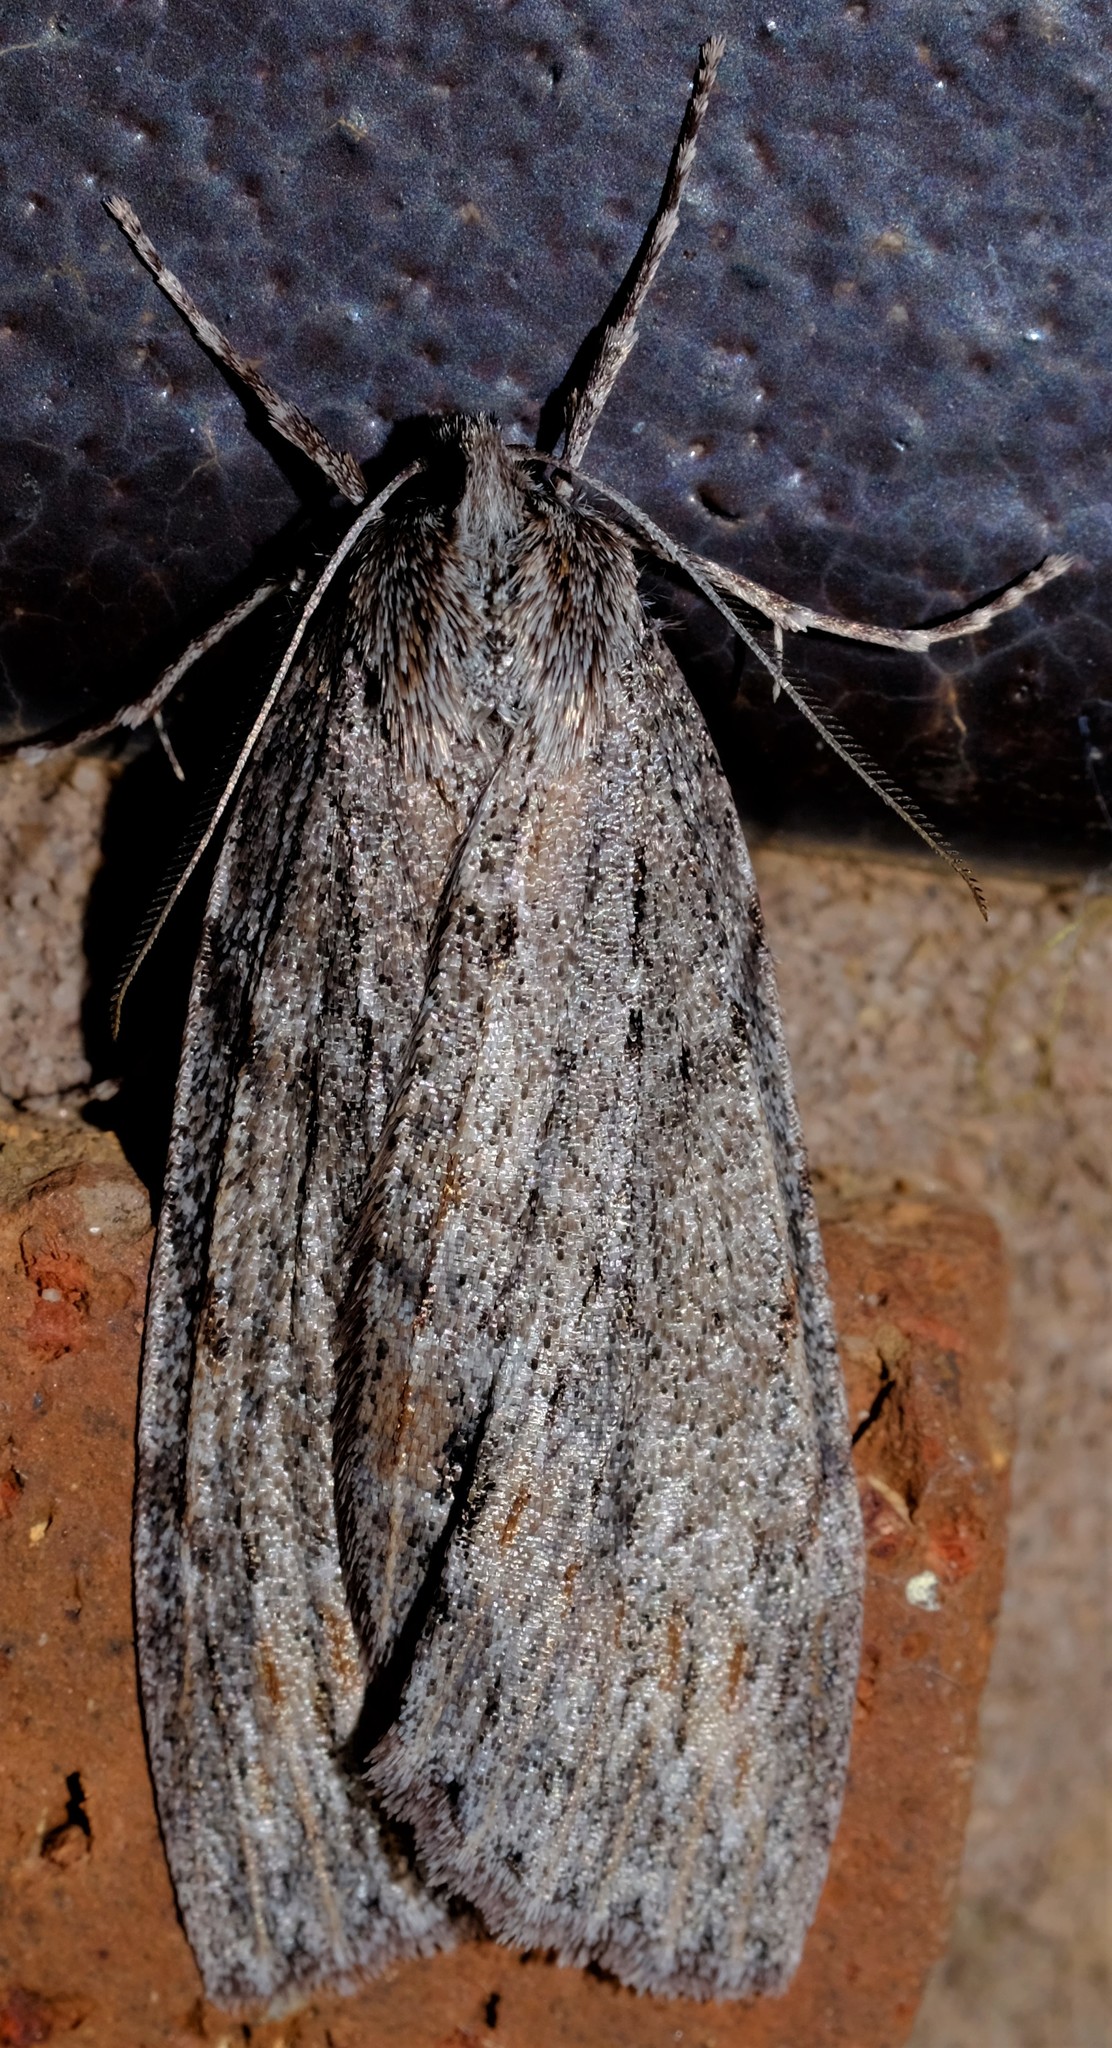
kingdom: Animalia
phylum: Arthropoda
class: Insecta
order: Lepidoptera
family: Geometridae
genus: Chlenias
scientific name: Chlenias banksiaria
